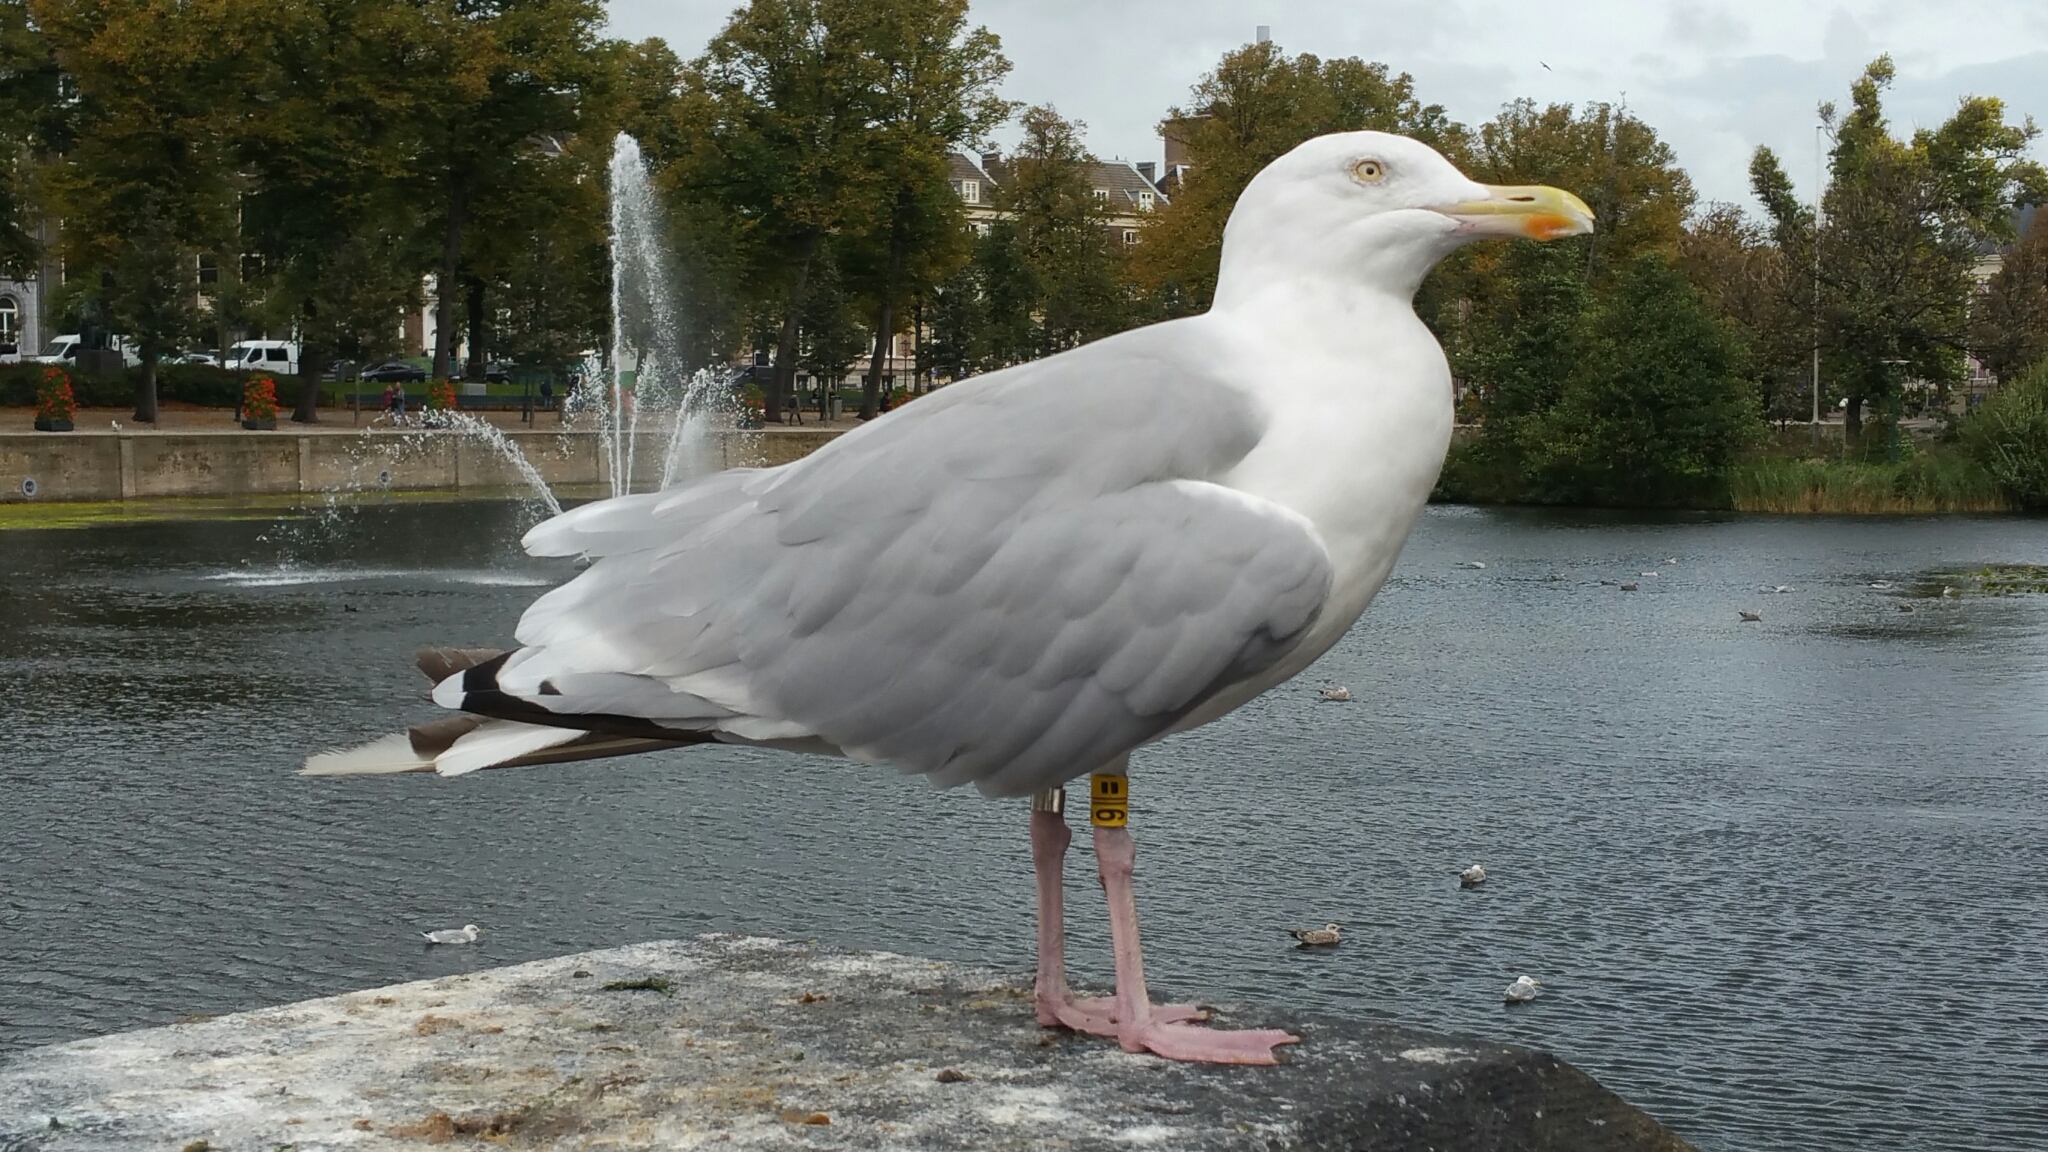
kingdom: Animalia
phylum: Chordata
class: Aves
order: Charadriiformes
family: Laridae
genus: Larus
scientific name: Larus argentatus
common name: Herring gull
